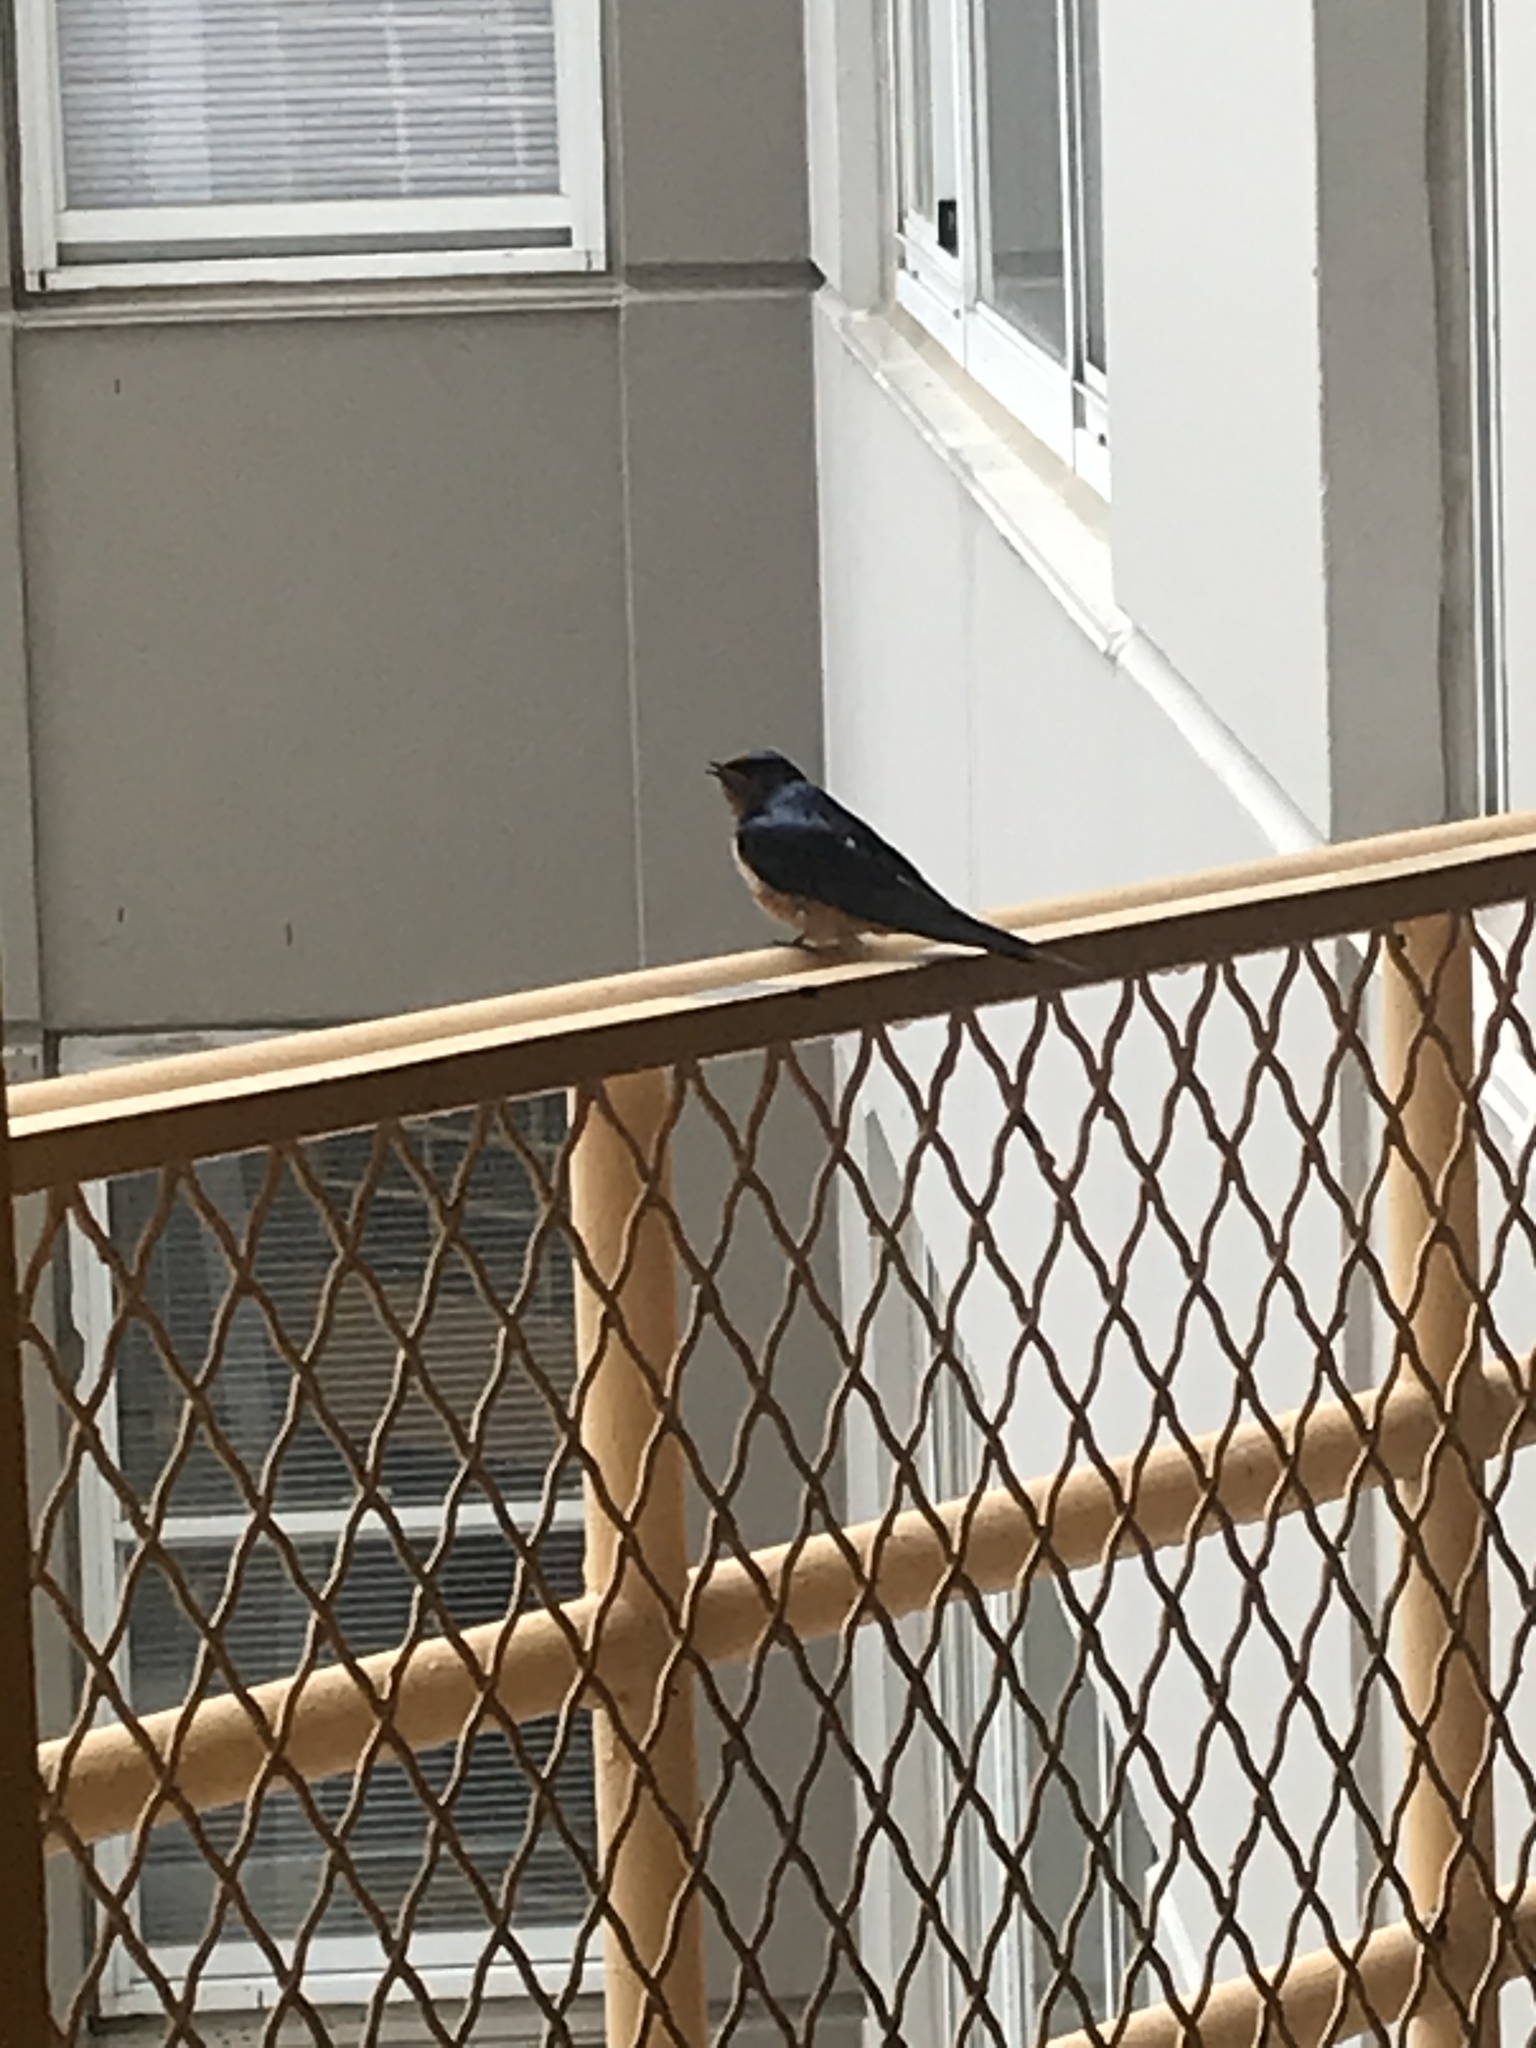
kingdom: Animalia
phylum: Chordata
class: Aves
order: Passeriformes
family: Hirundinidae
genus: Hirundo
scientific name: Hirundo rustica
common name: Barn swallow
